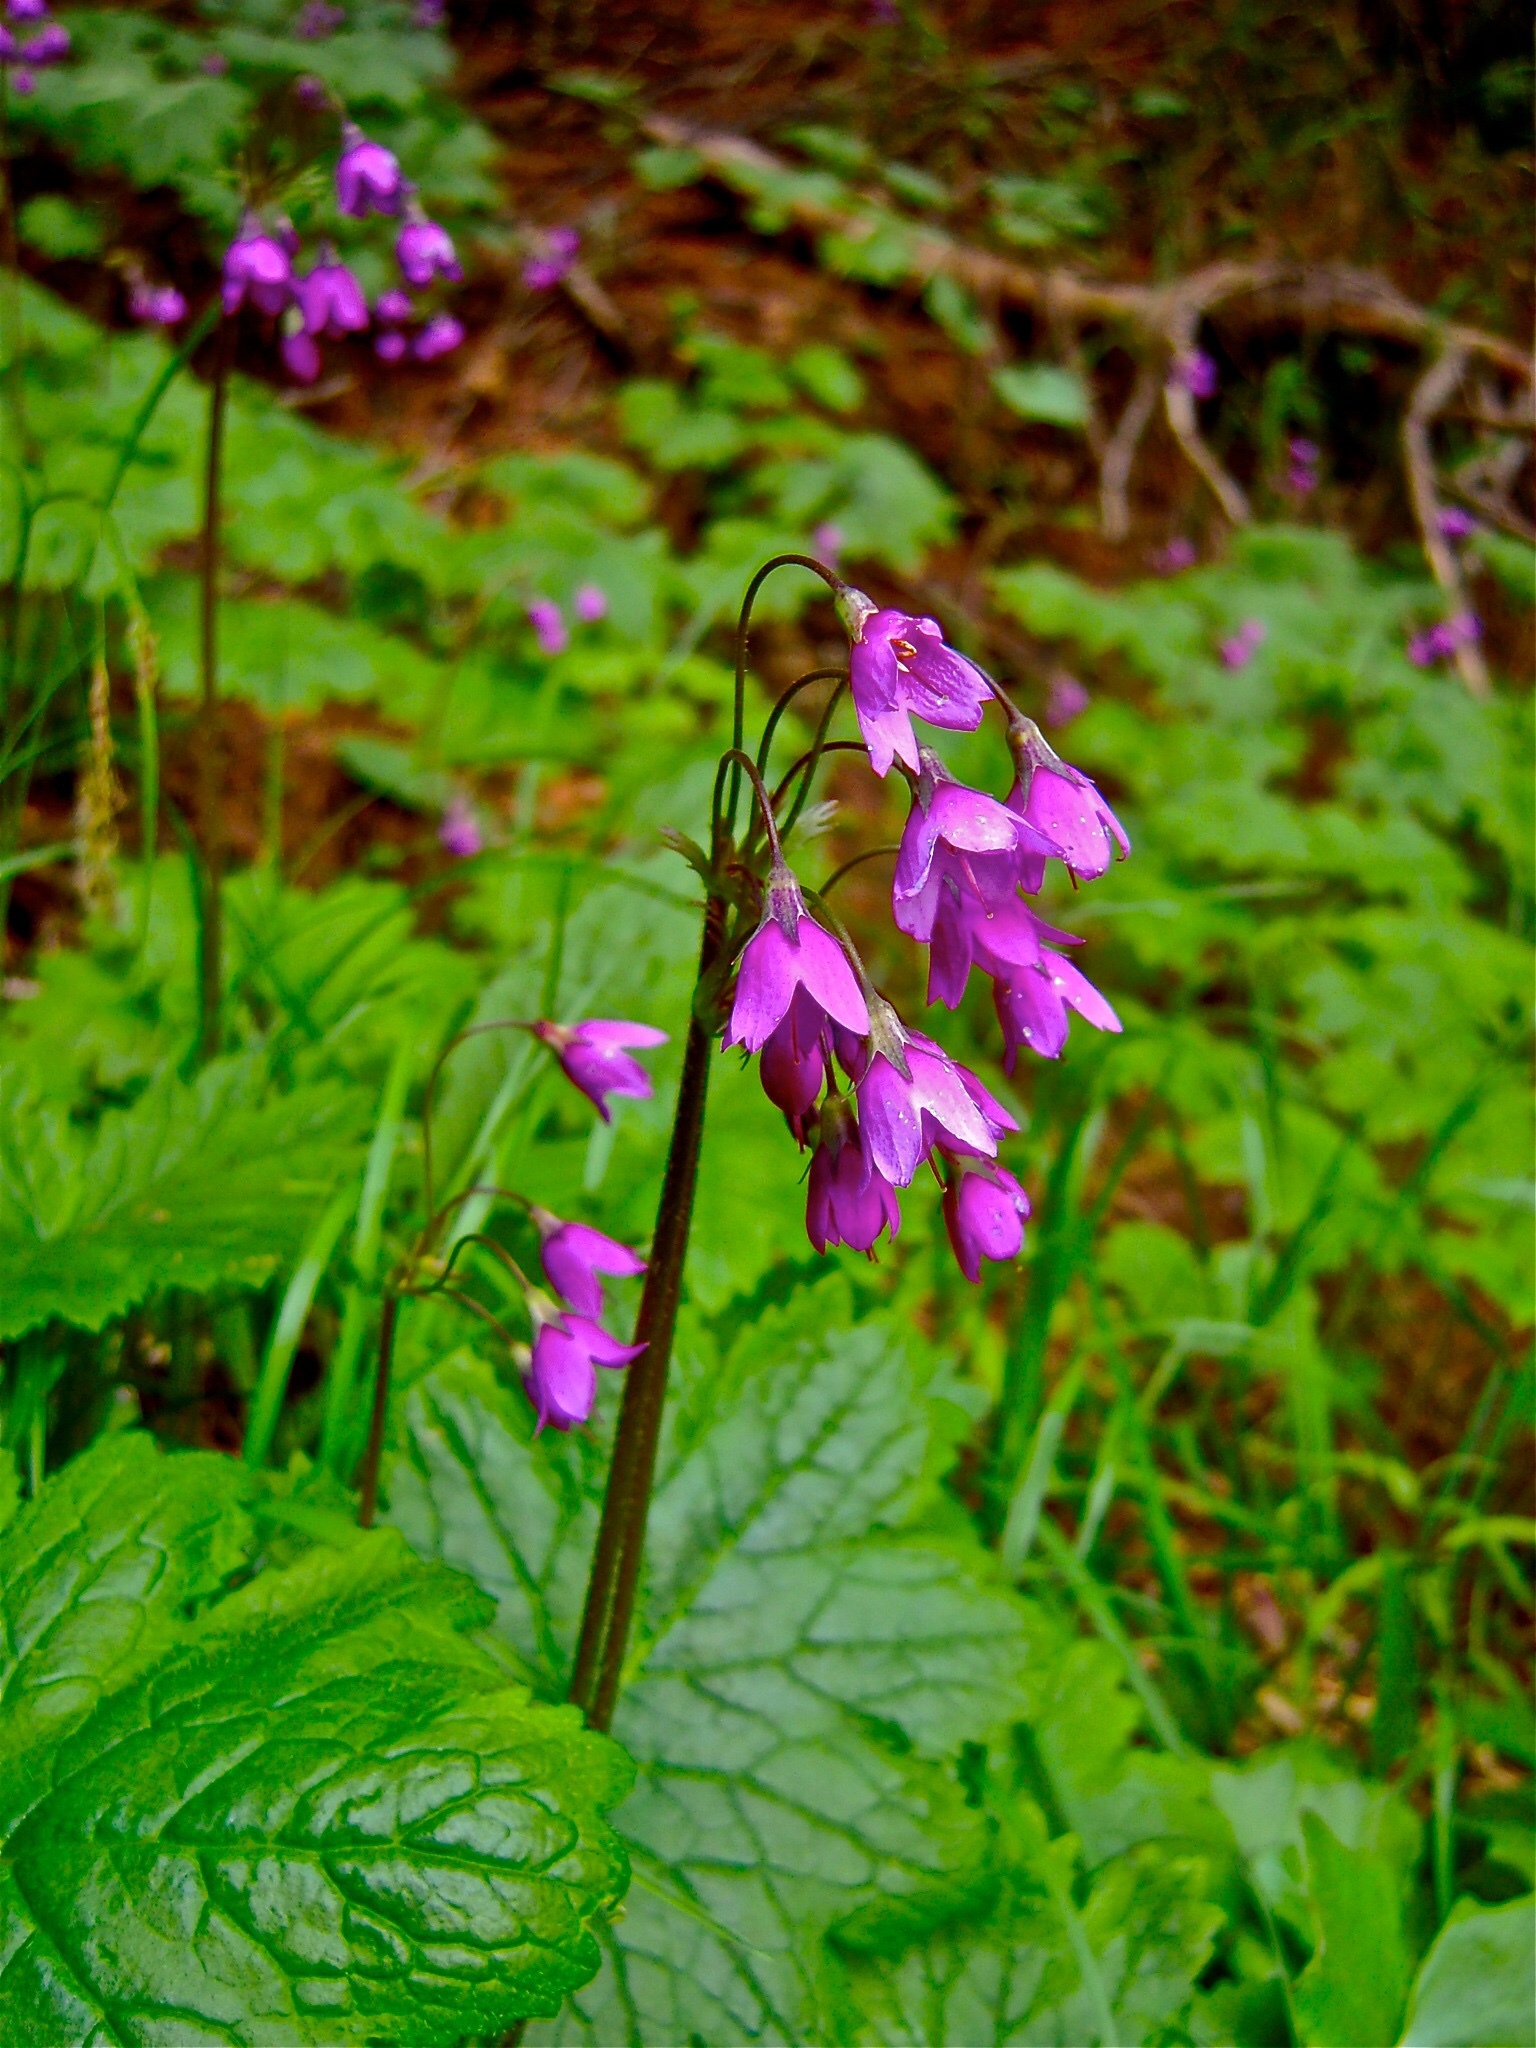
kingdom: Plantae
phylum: Tracheophyta
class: Magnoliopsida
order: Ericales
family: Primulaceae
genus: Primula
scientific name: Primula matthioli
